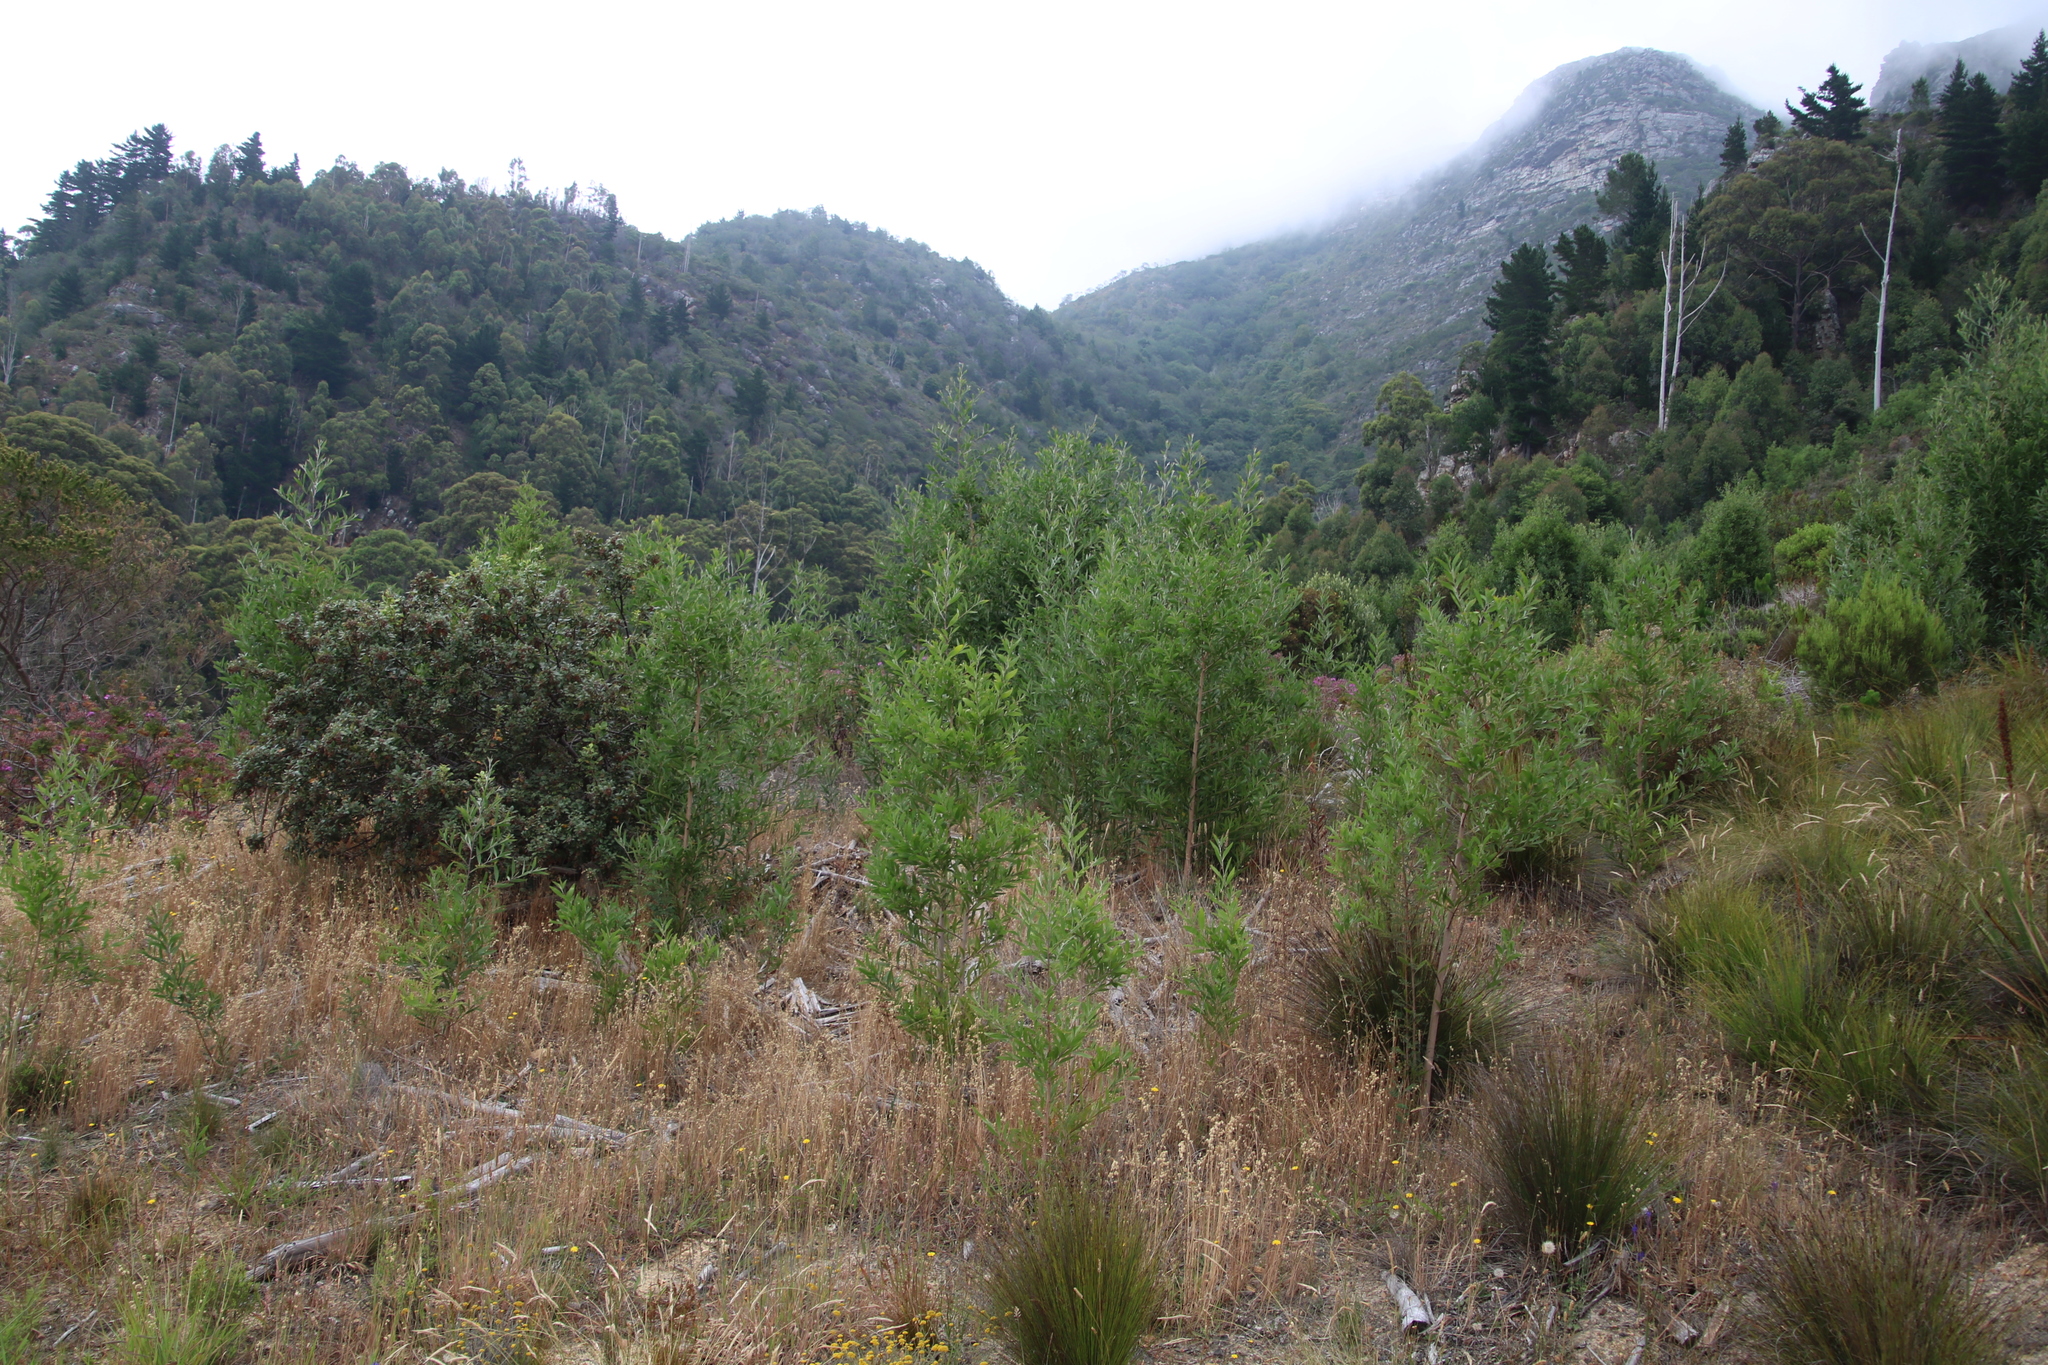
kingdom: Plantae
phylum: Tracheophyta
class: Magnoliopsida
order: Fabales
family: Fabaceae
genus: Acacia
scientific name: Acacia melanoxylon
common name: Blackwood
